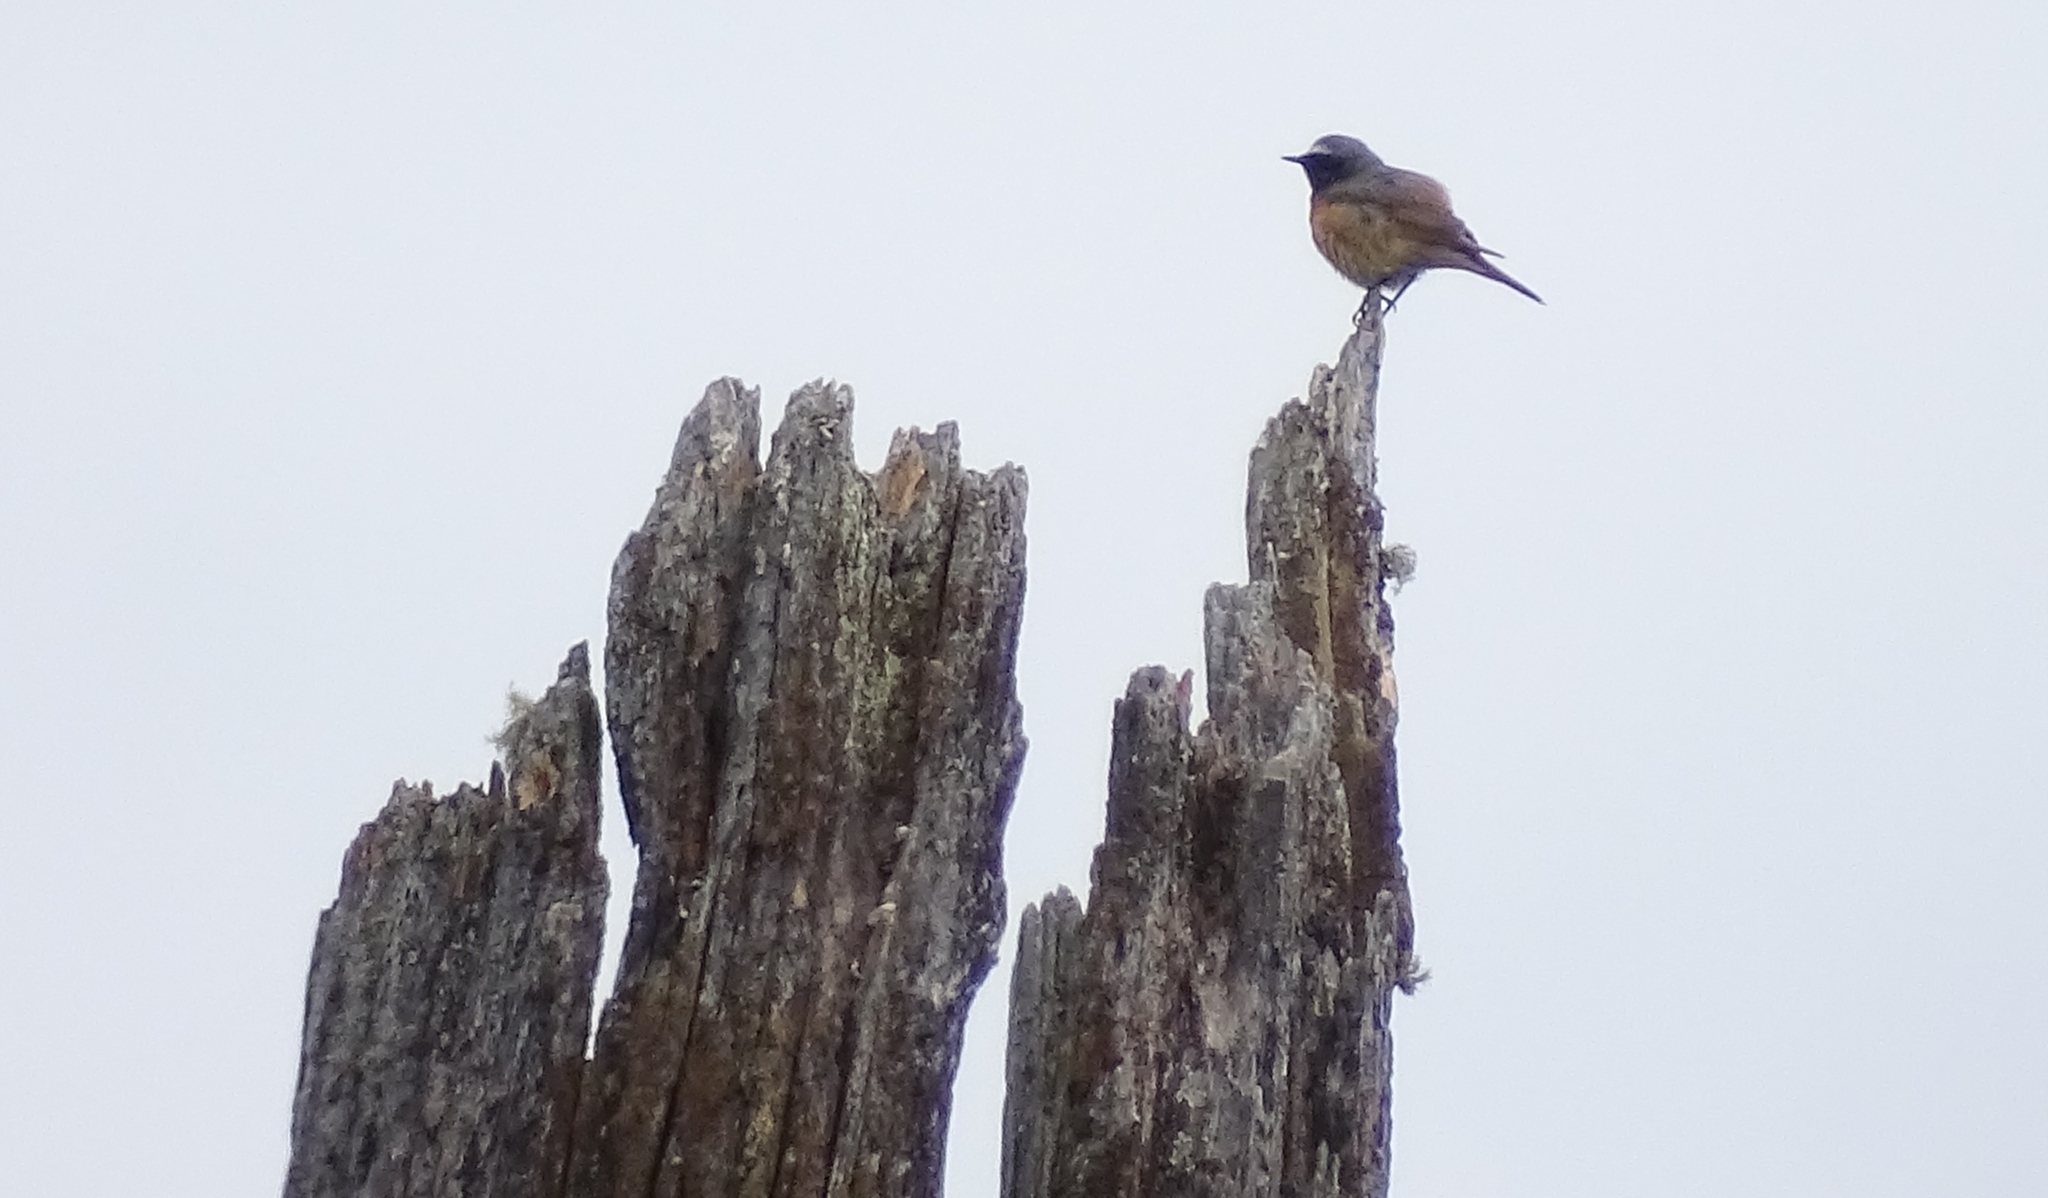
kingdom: Animalia
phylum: Chordata
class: Aves
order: Passeriformes
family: Muscicapidae
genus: Phoenicurus
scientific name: Phoenicurus phoenicurus
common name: Common redstart
